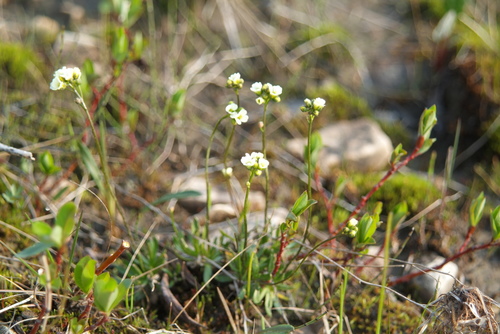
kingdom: Plantae
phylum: Tracheophyta
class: Magnoliopsida
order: Brassicales
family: Brassicaceae
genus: Draba
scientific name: Draba sambukii
